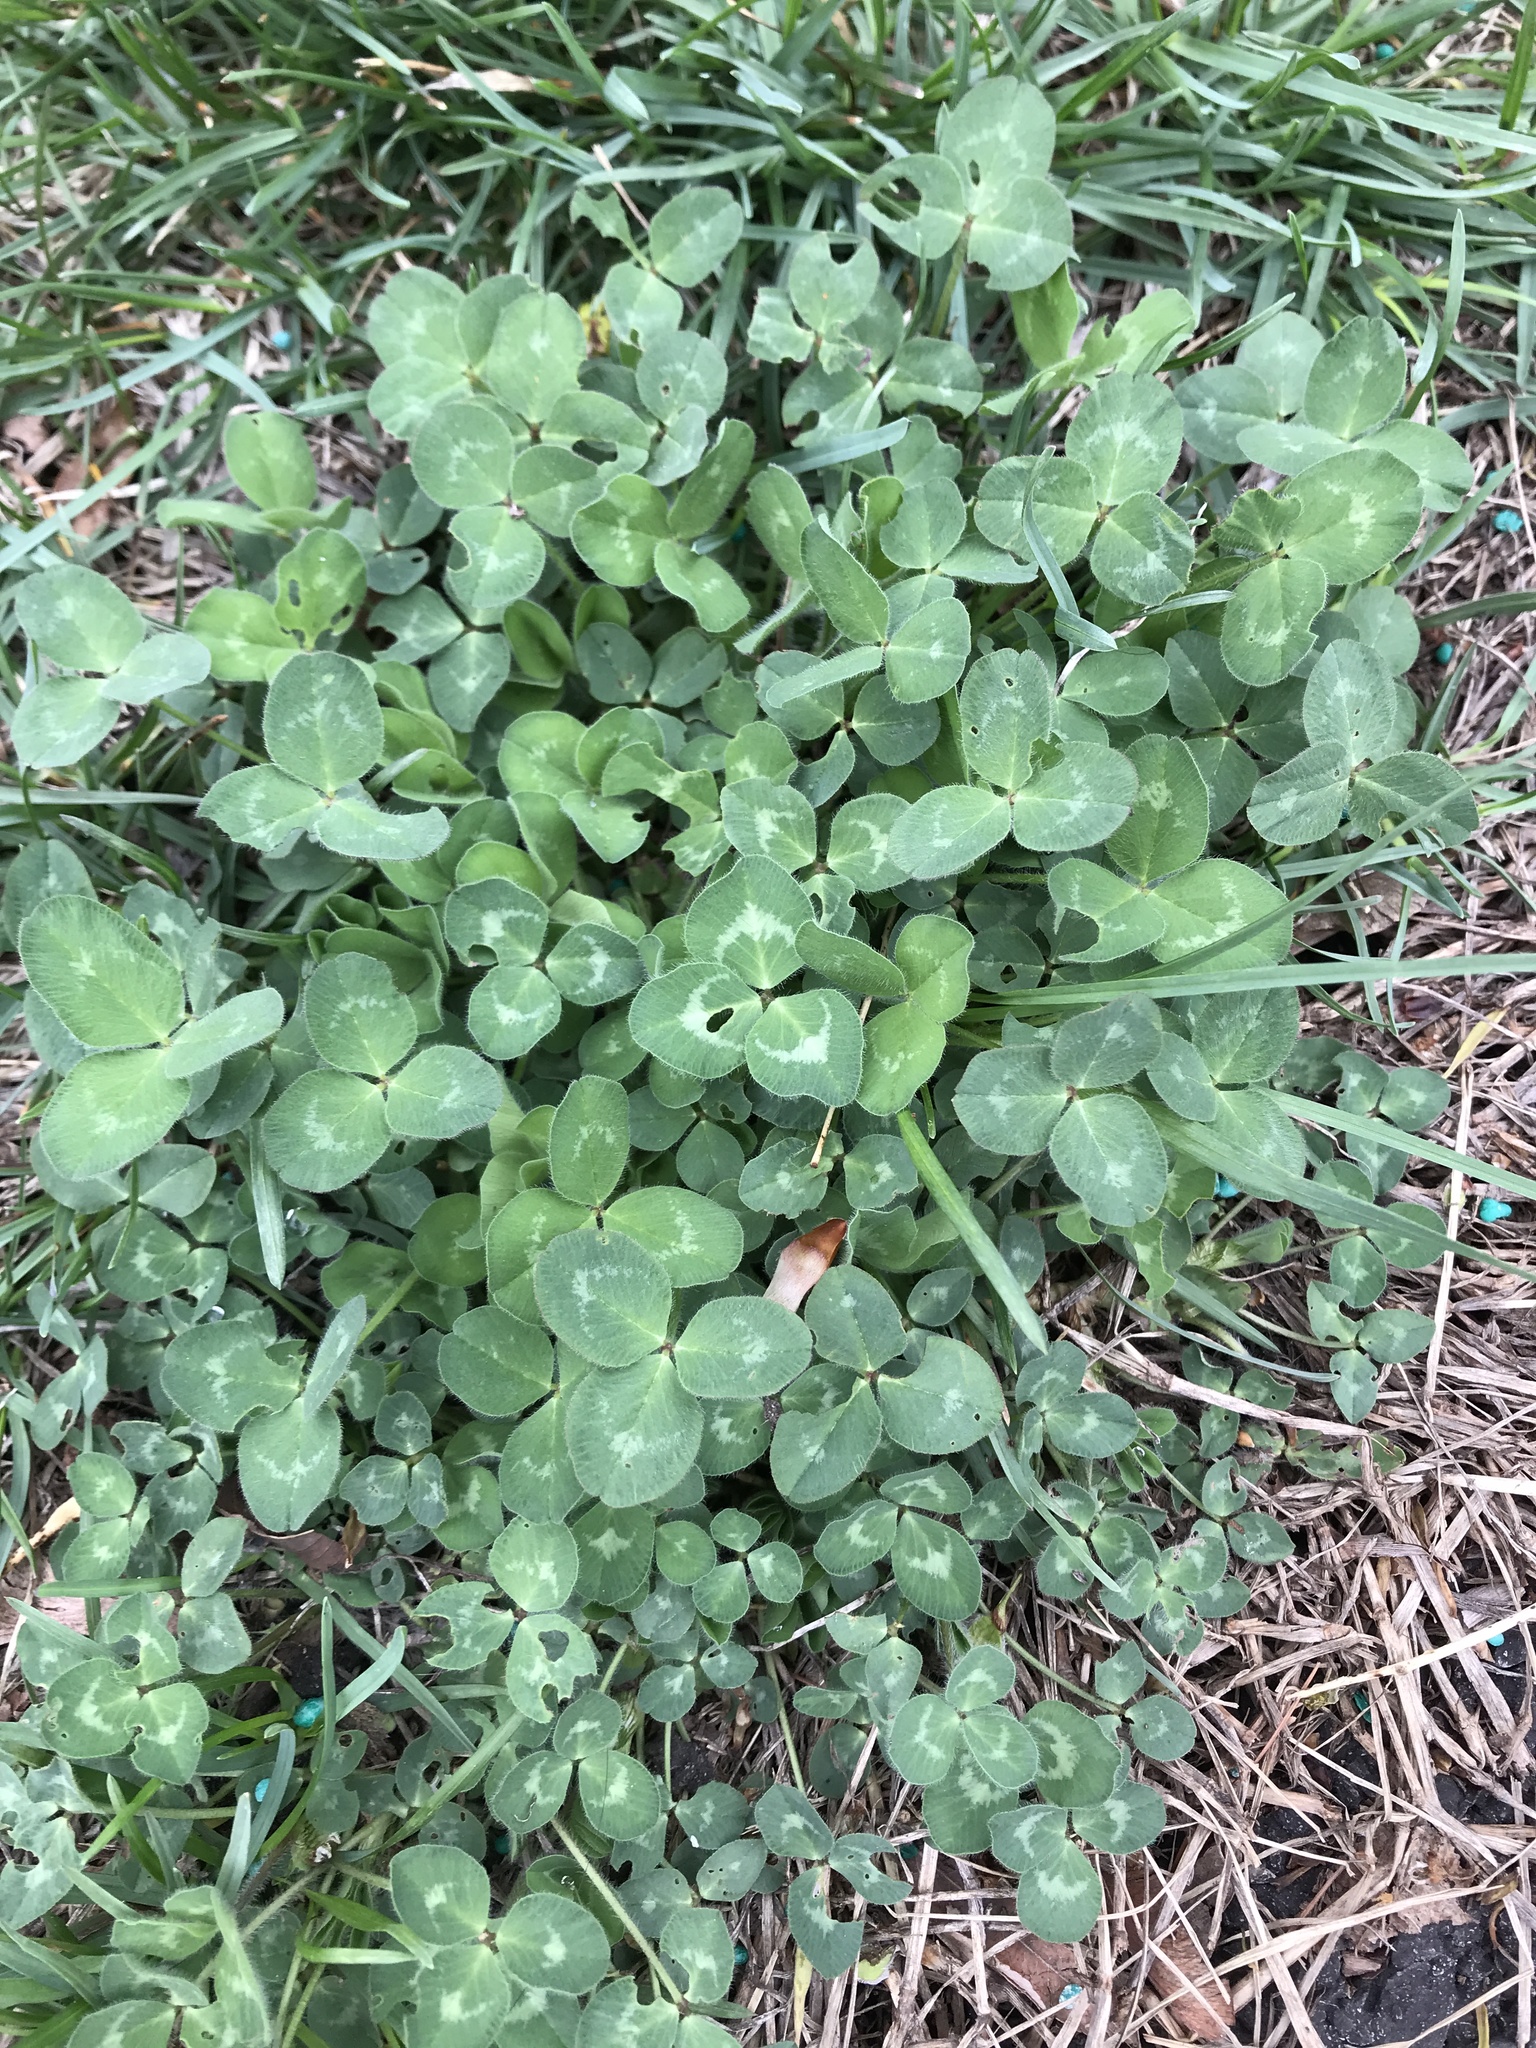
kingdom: Plantae
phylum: Tracheophyta
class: Magnoliopsida
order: Fabales
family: Fabaceae
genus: Trifolium
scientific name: Trifolium repens
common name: White clover
